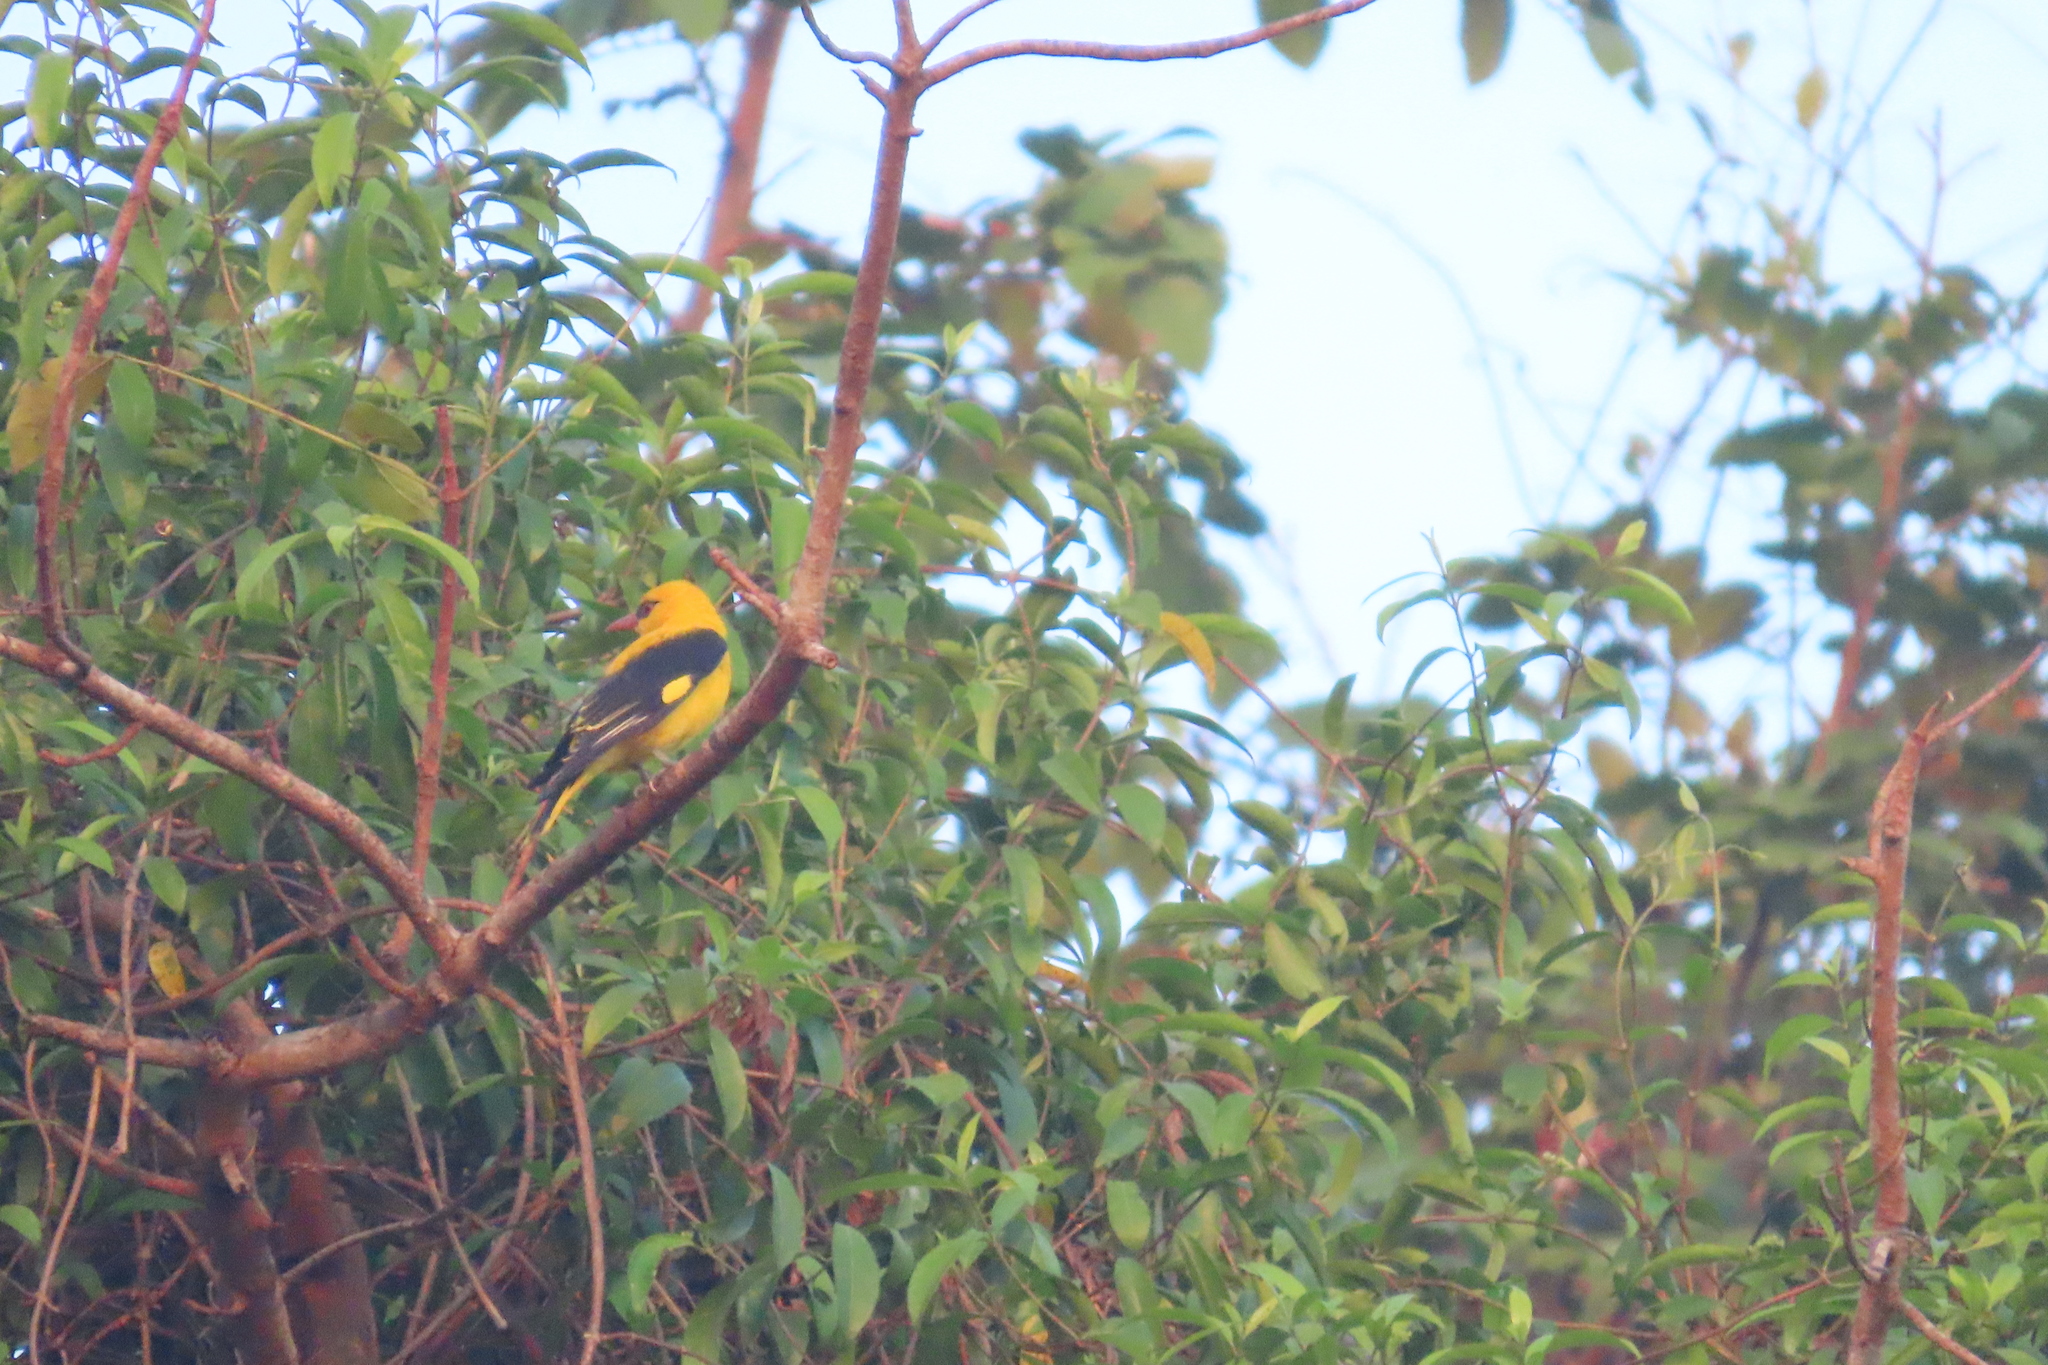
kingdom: Animalia
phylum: Chordata
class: Aves
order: Passeriformes
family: Oriolidae
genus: Oriolus
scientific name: Oriolus kundoo
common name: Indian golden oriole
